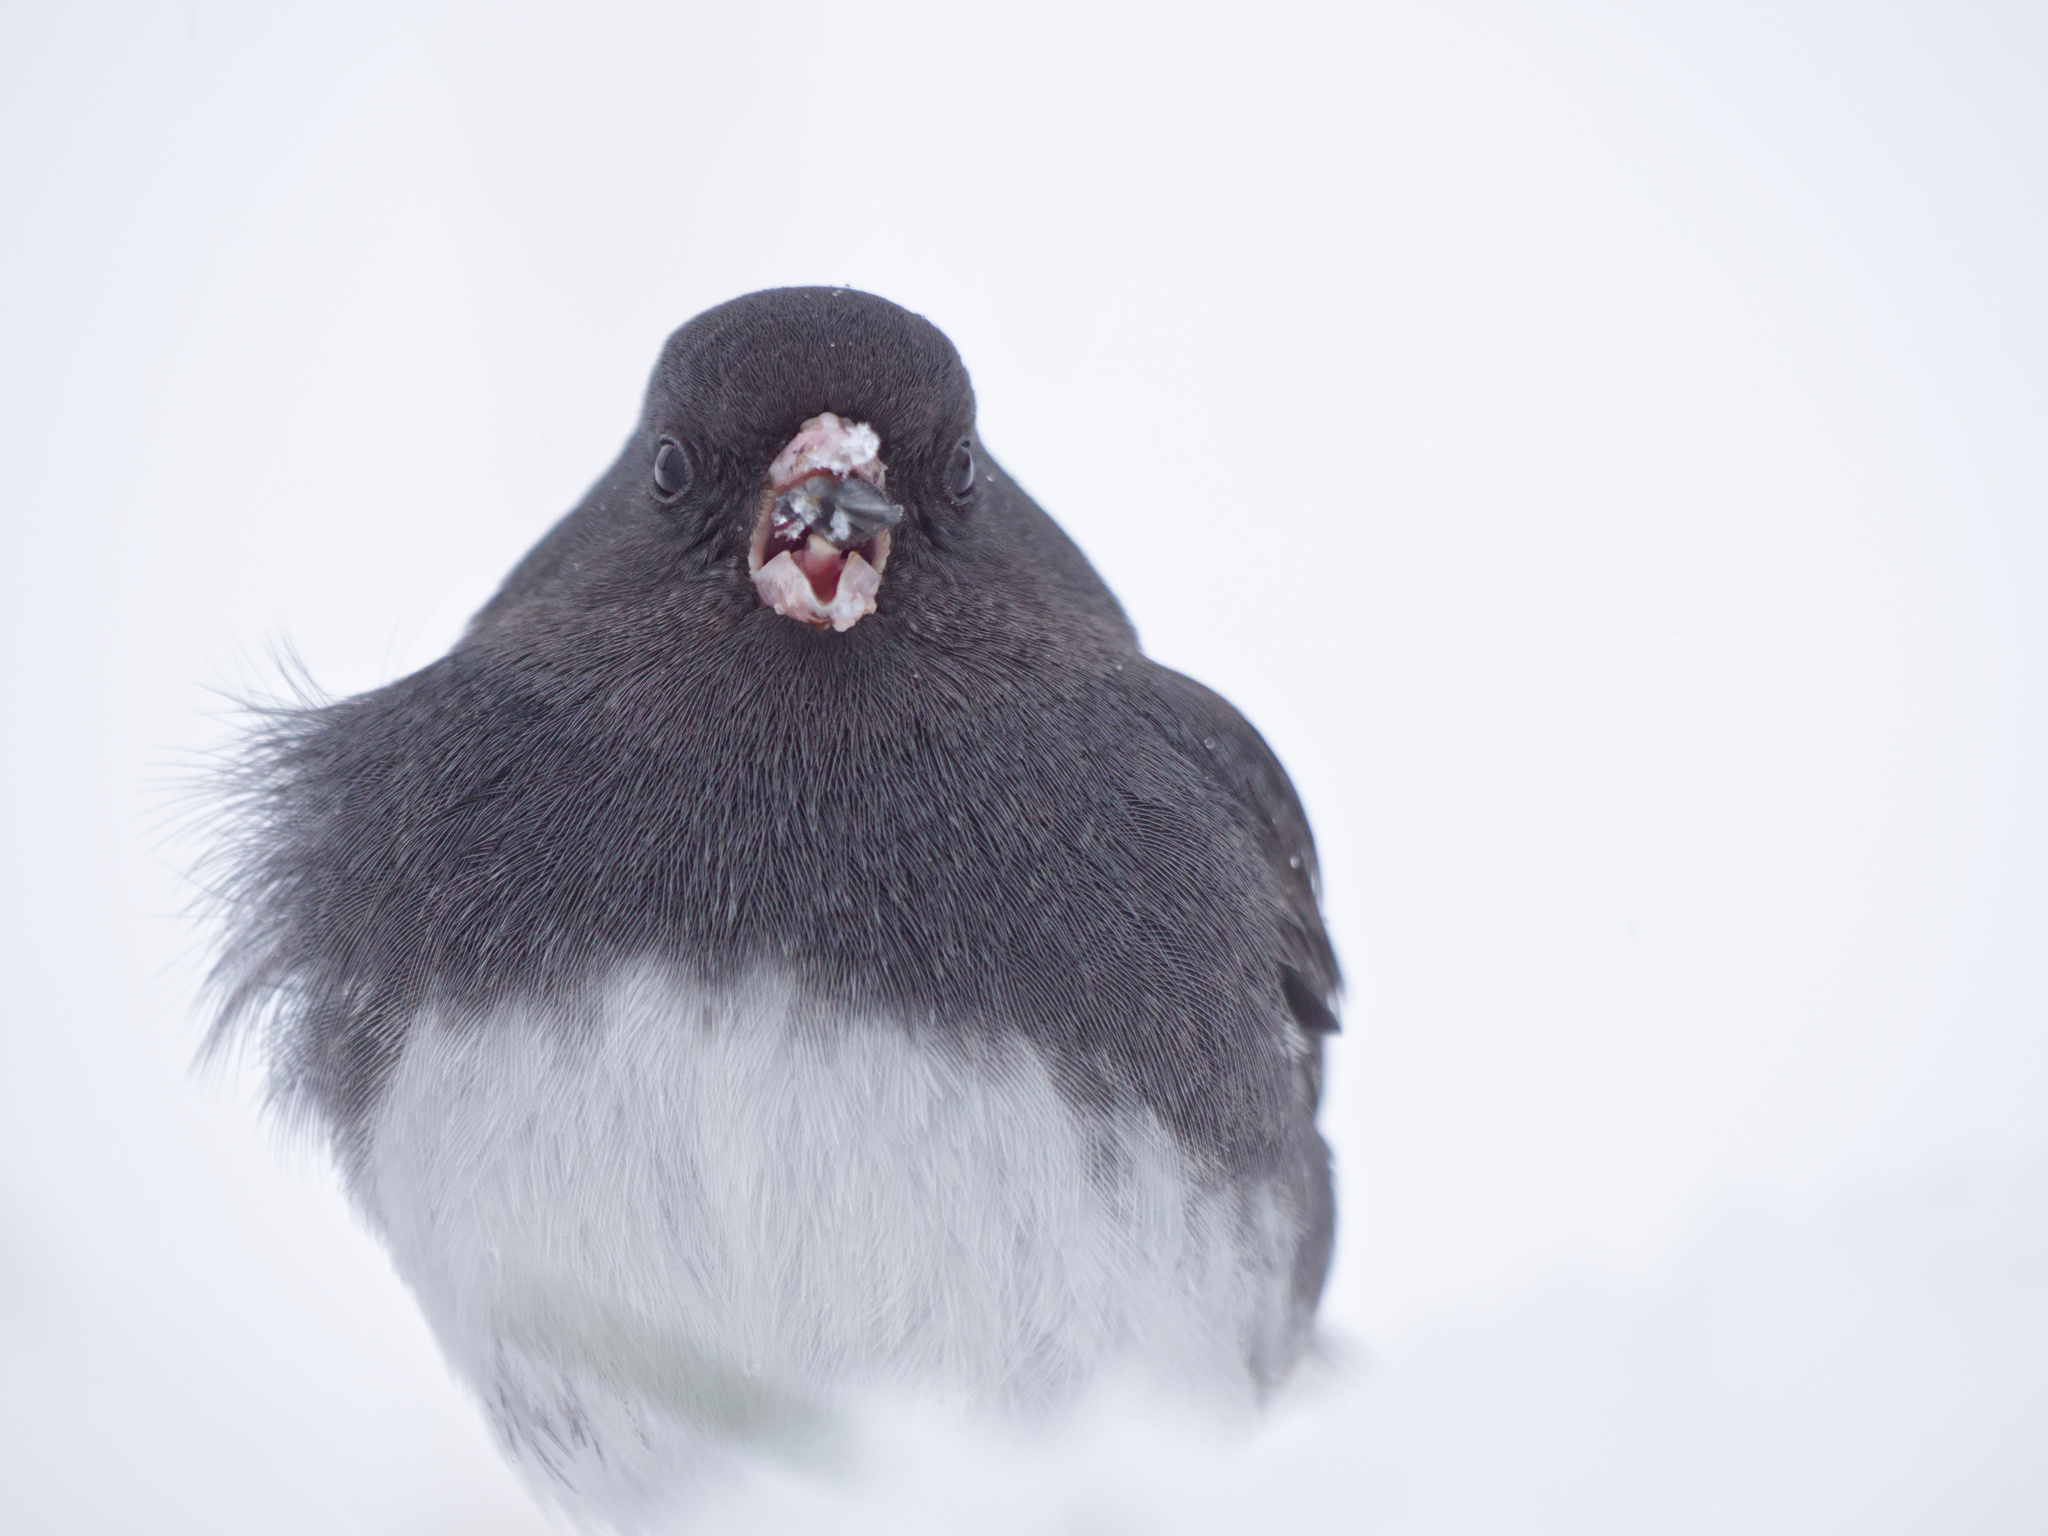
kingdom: Animalia
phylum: Chordata
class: Aves
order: Passeriformes
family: Passerellidae
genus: Junco
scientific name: Junco hyemalis
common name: Dark-eyed junco
